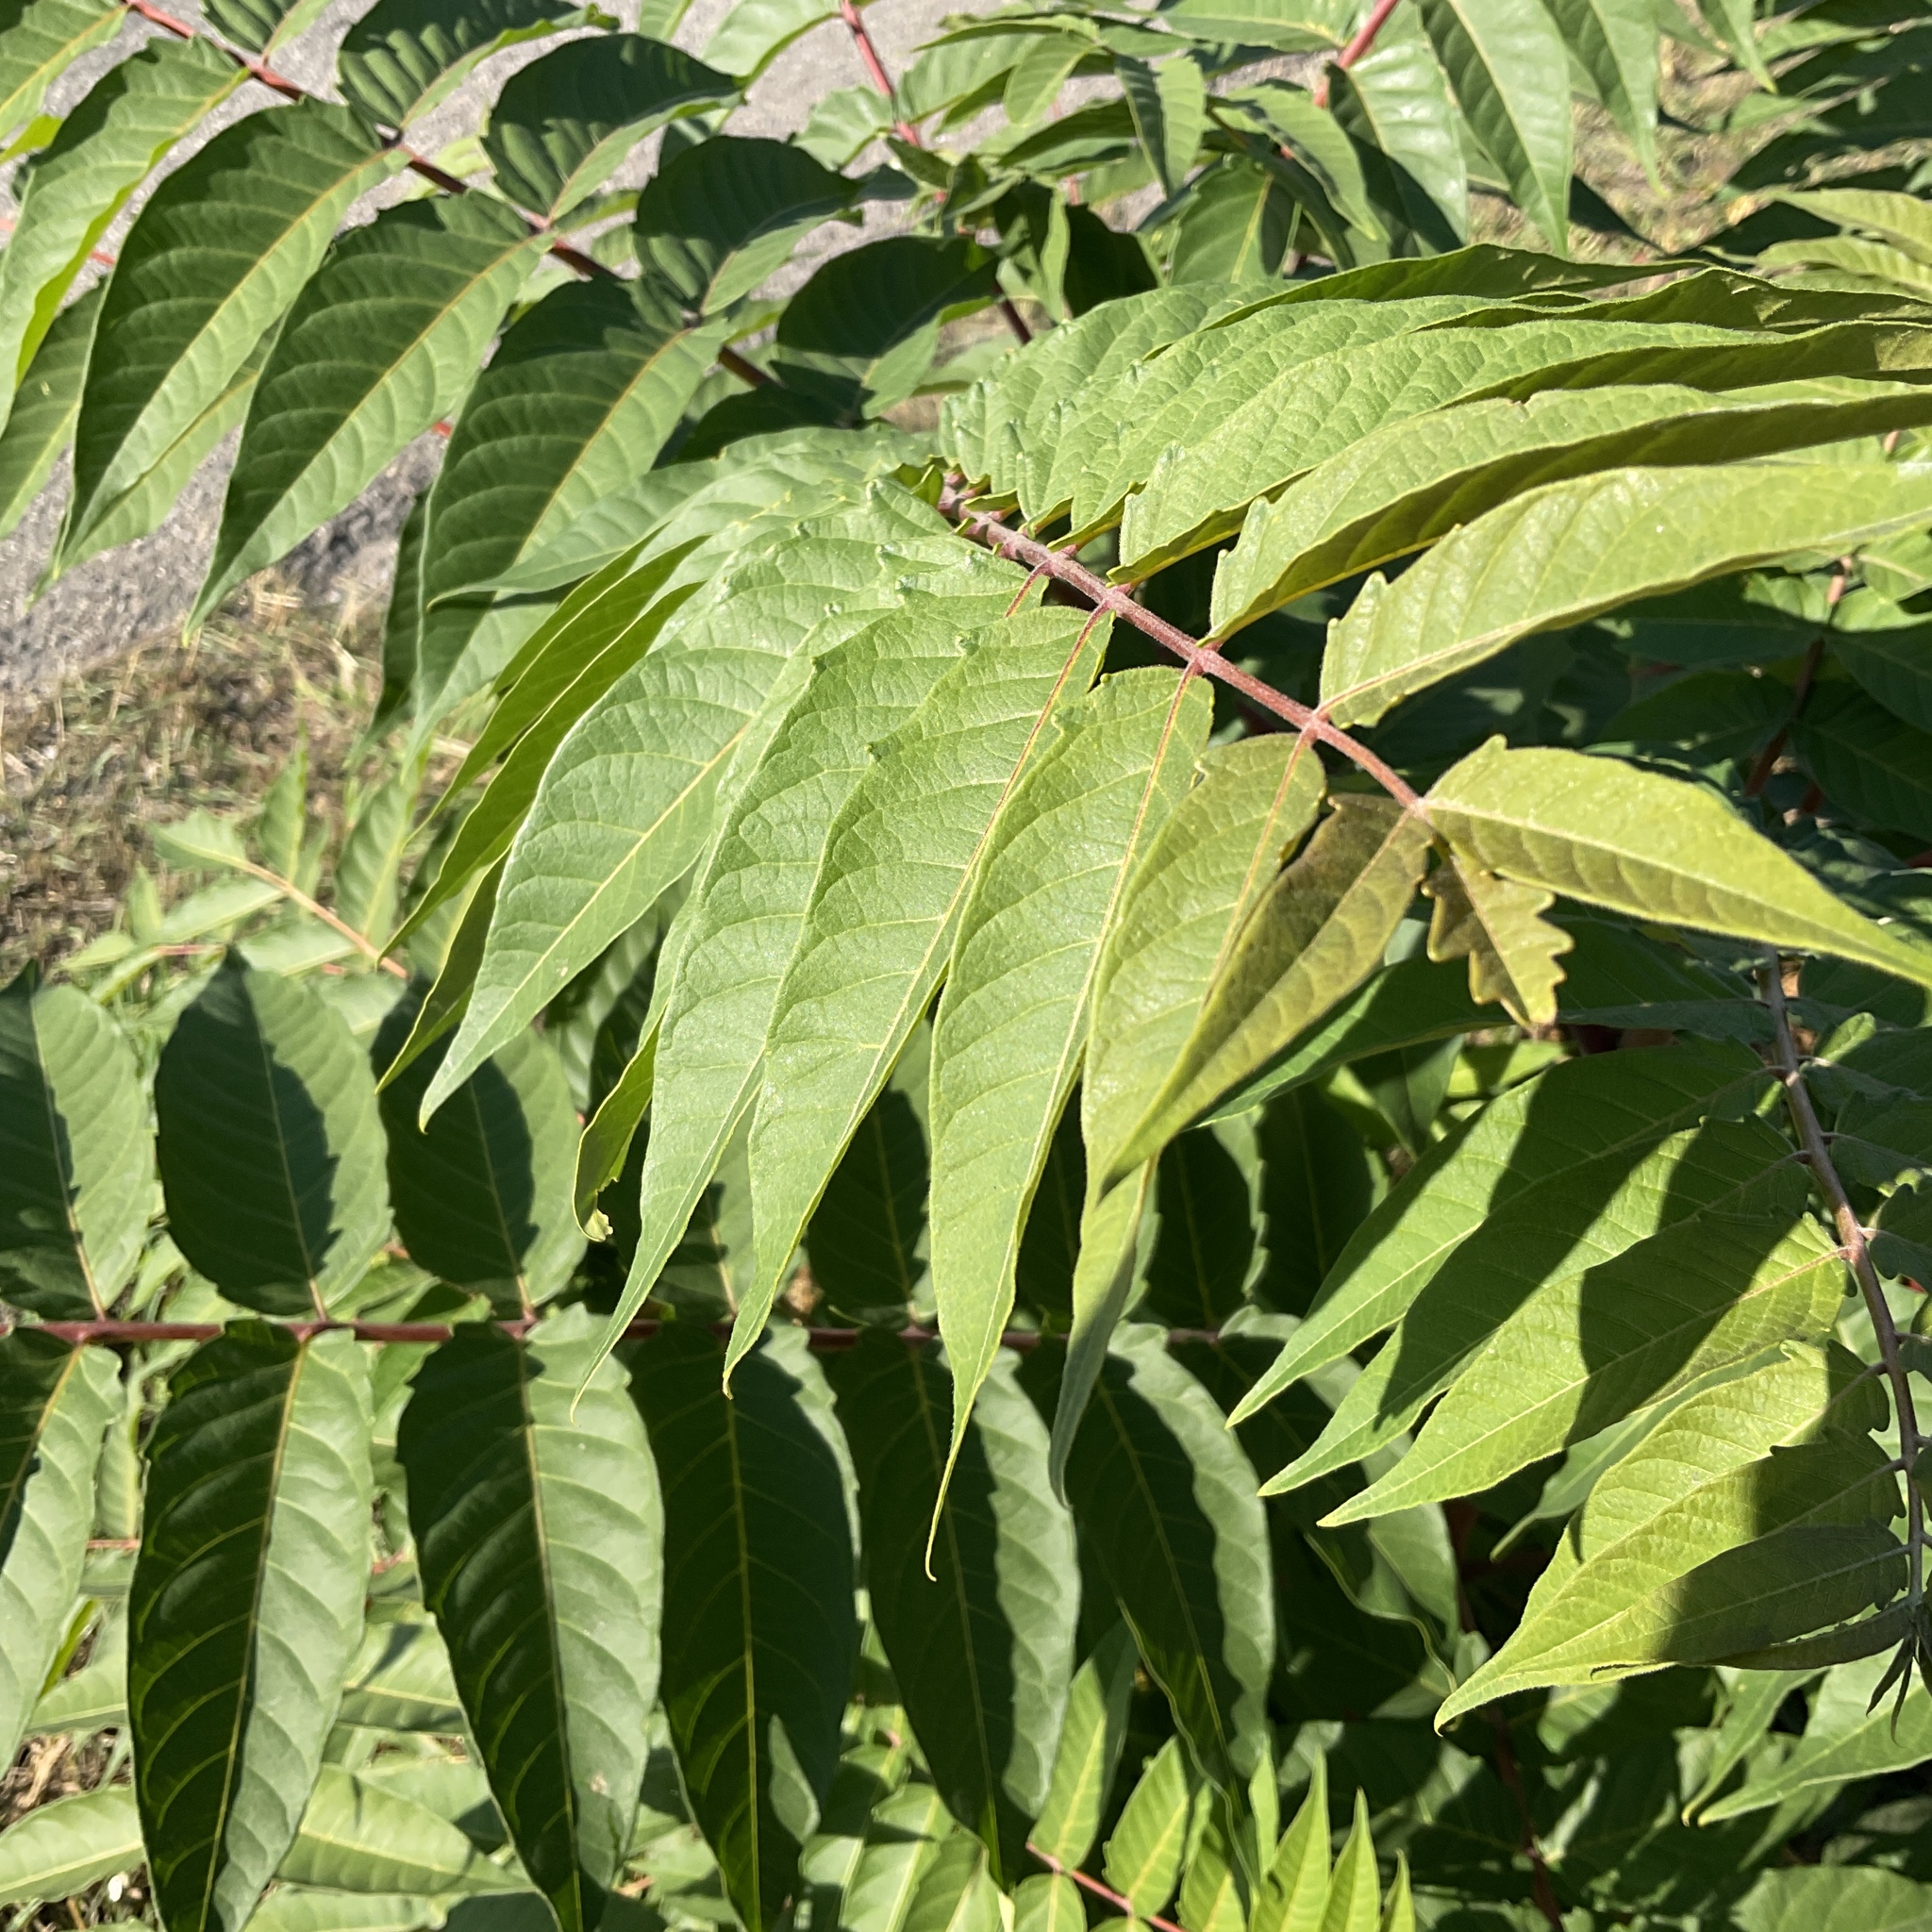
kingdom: Plantae
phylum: Tracheophyta
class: Magnoliopsida
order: Sapindales
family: Simaroubaceae
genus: Ailanthus
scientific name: Ailanthus altissima
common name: Tree-of-heaven
